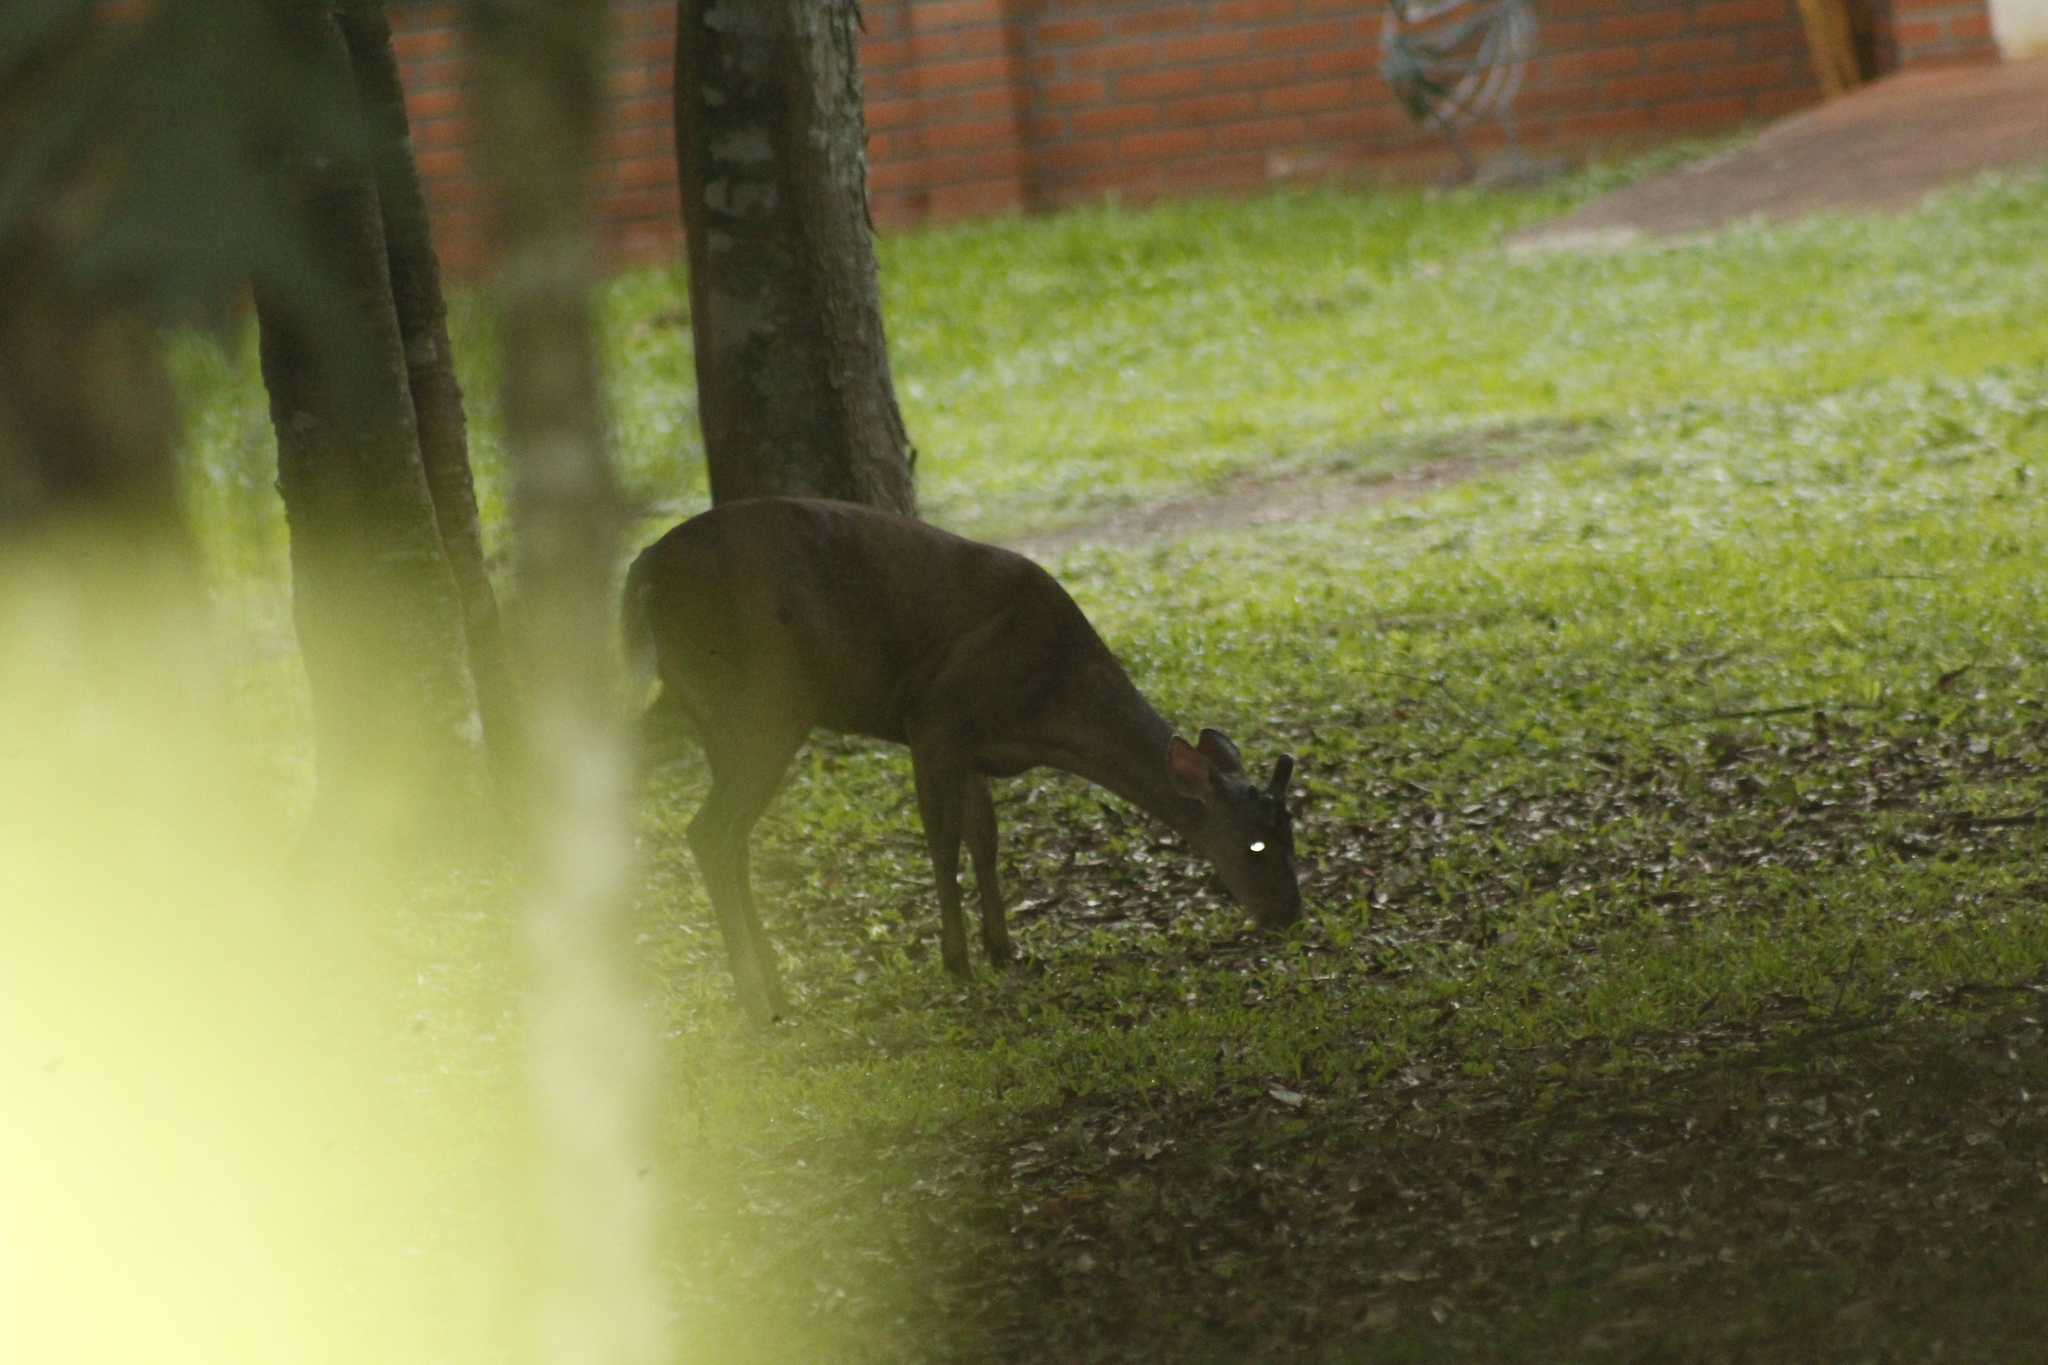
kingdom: Animalia
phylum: Chordata
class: Mammalia
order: Artiodactyla
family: Cervidae
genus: Mazama
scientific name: Mazama americana
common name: Red brocket
